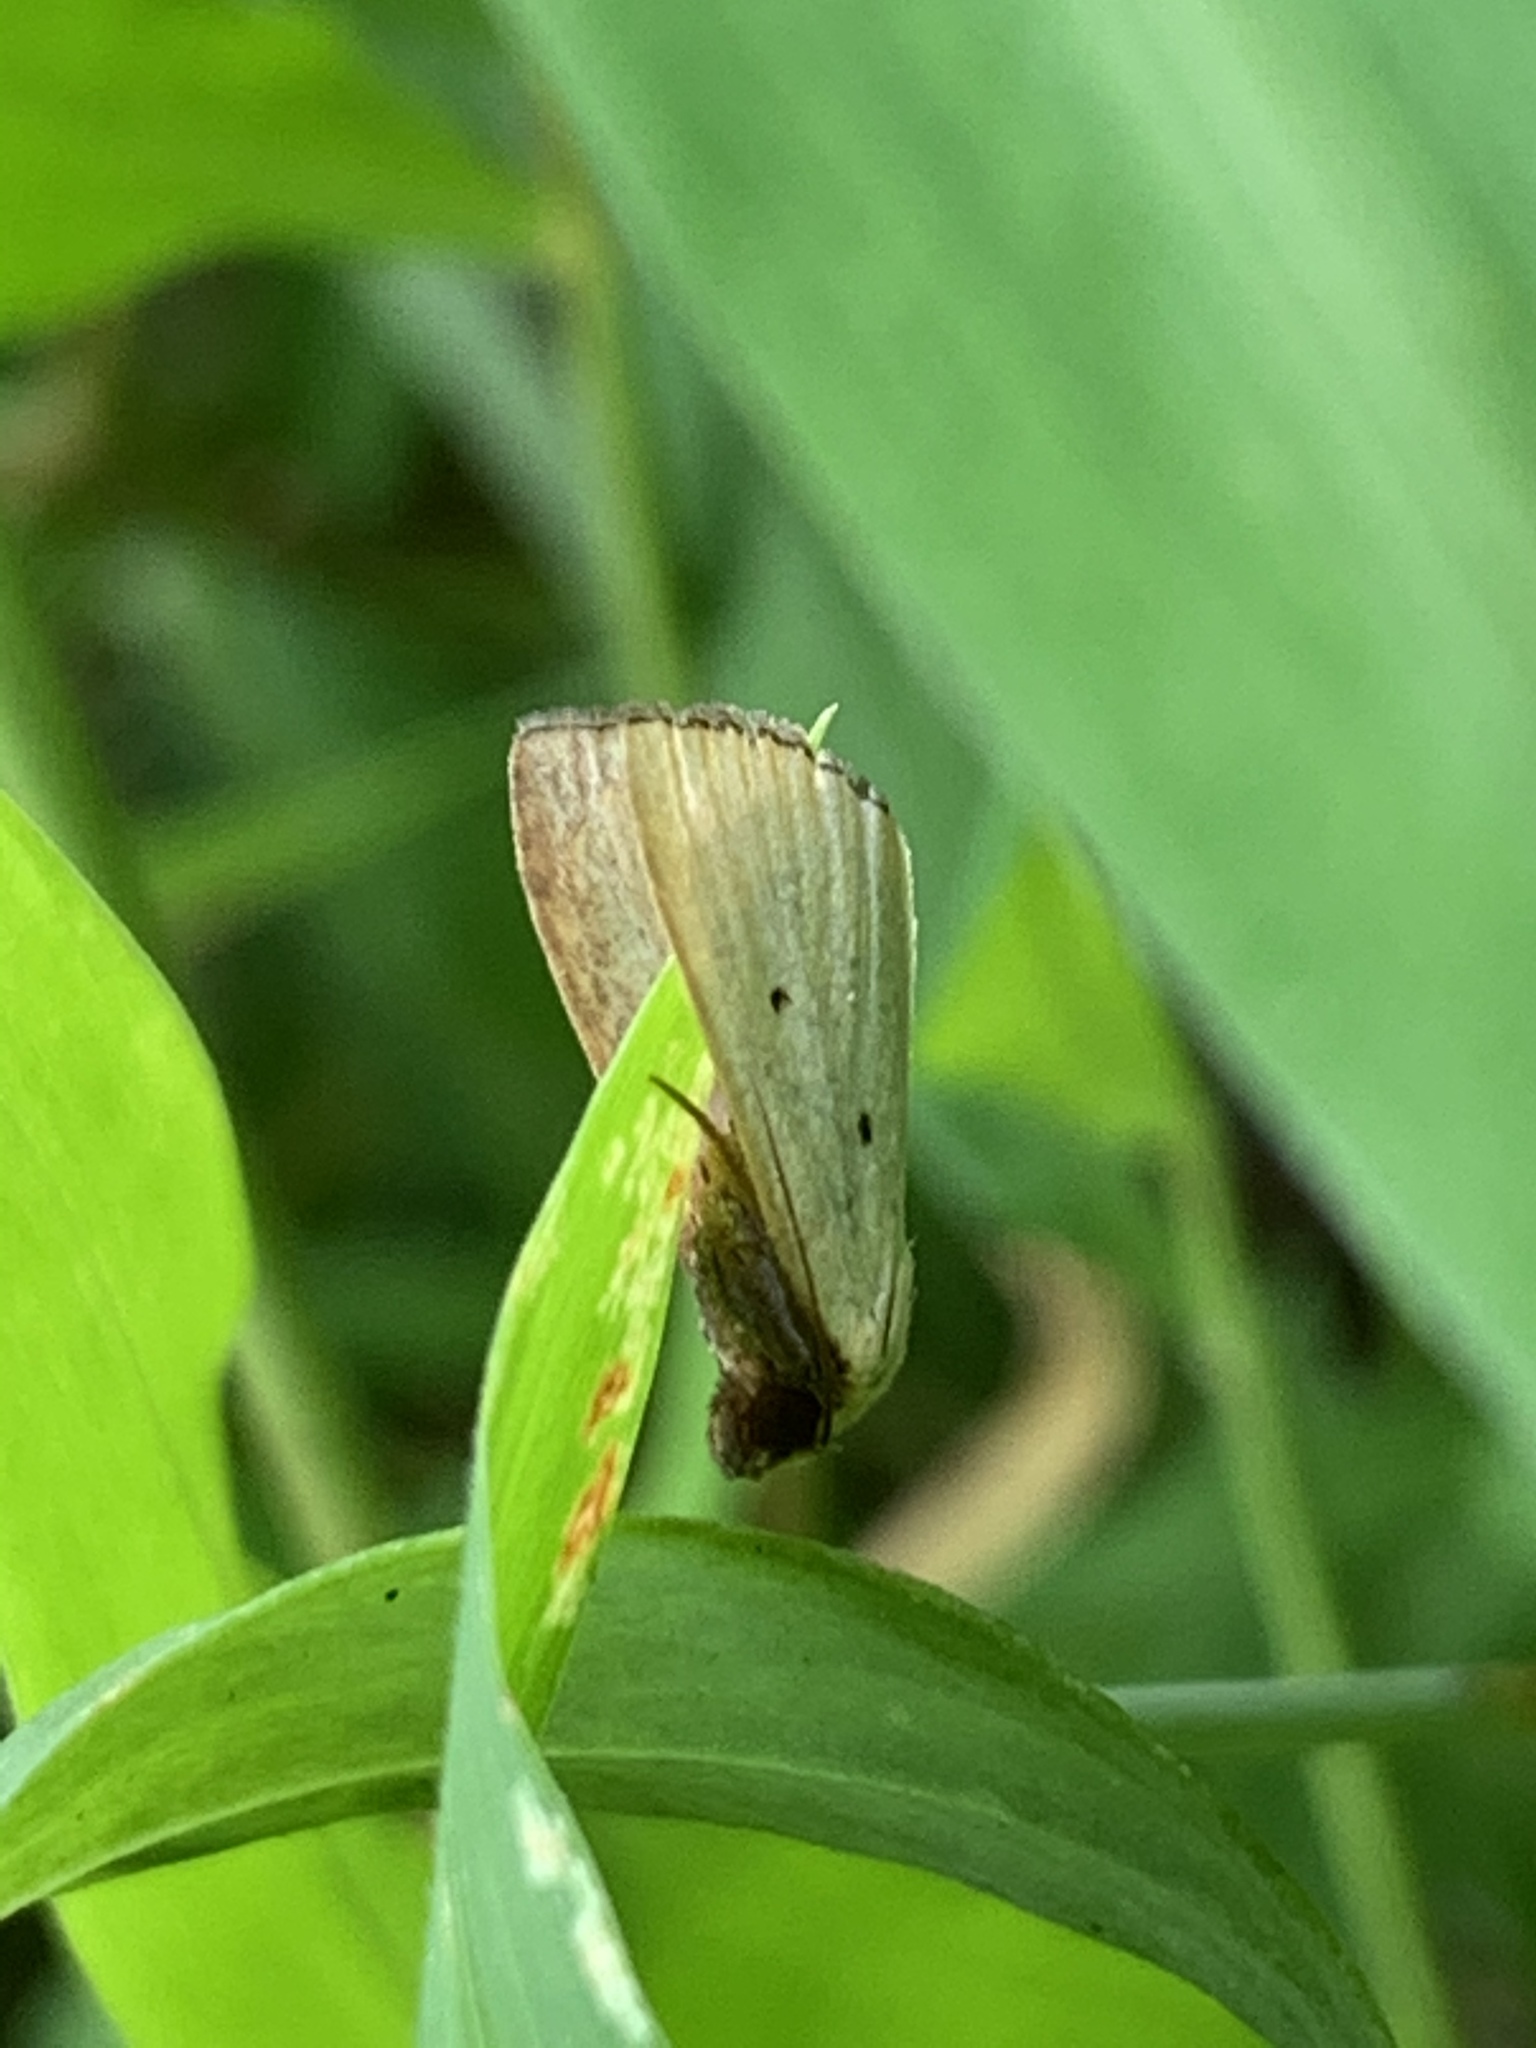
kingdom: Animalia
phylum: Arthropoda
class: Insecta
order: Lepidoptera
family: Noctuidae
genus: Marimatha
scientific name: Marimatha nigrofimbria
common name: Black-bordered lemon moth
